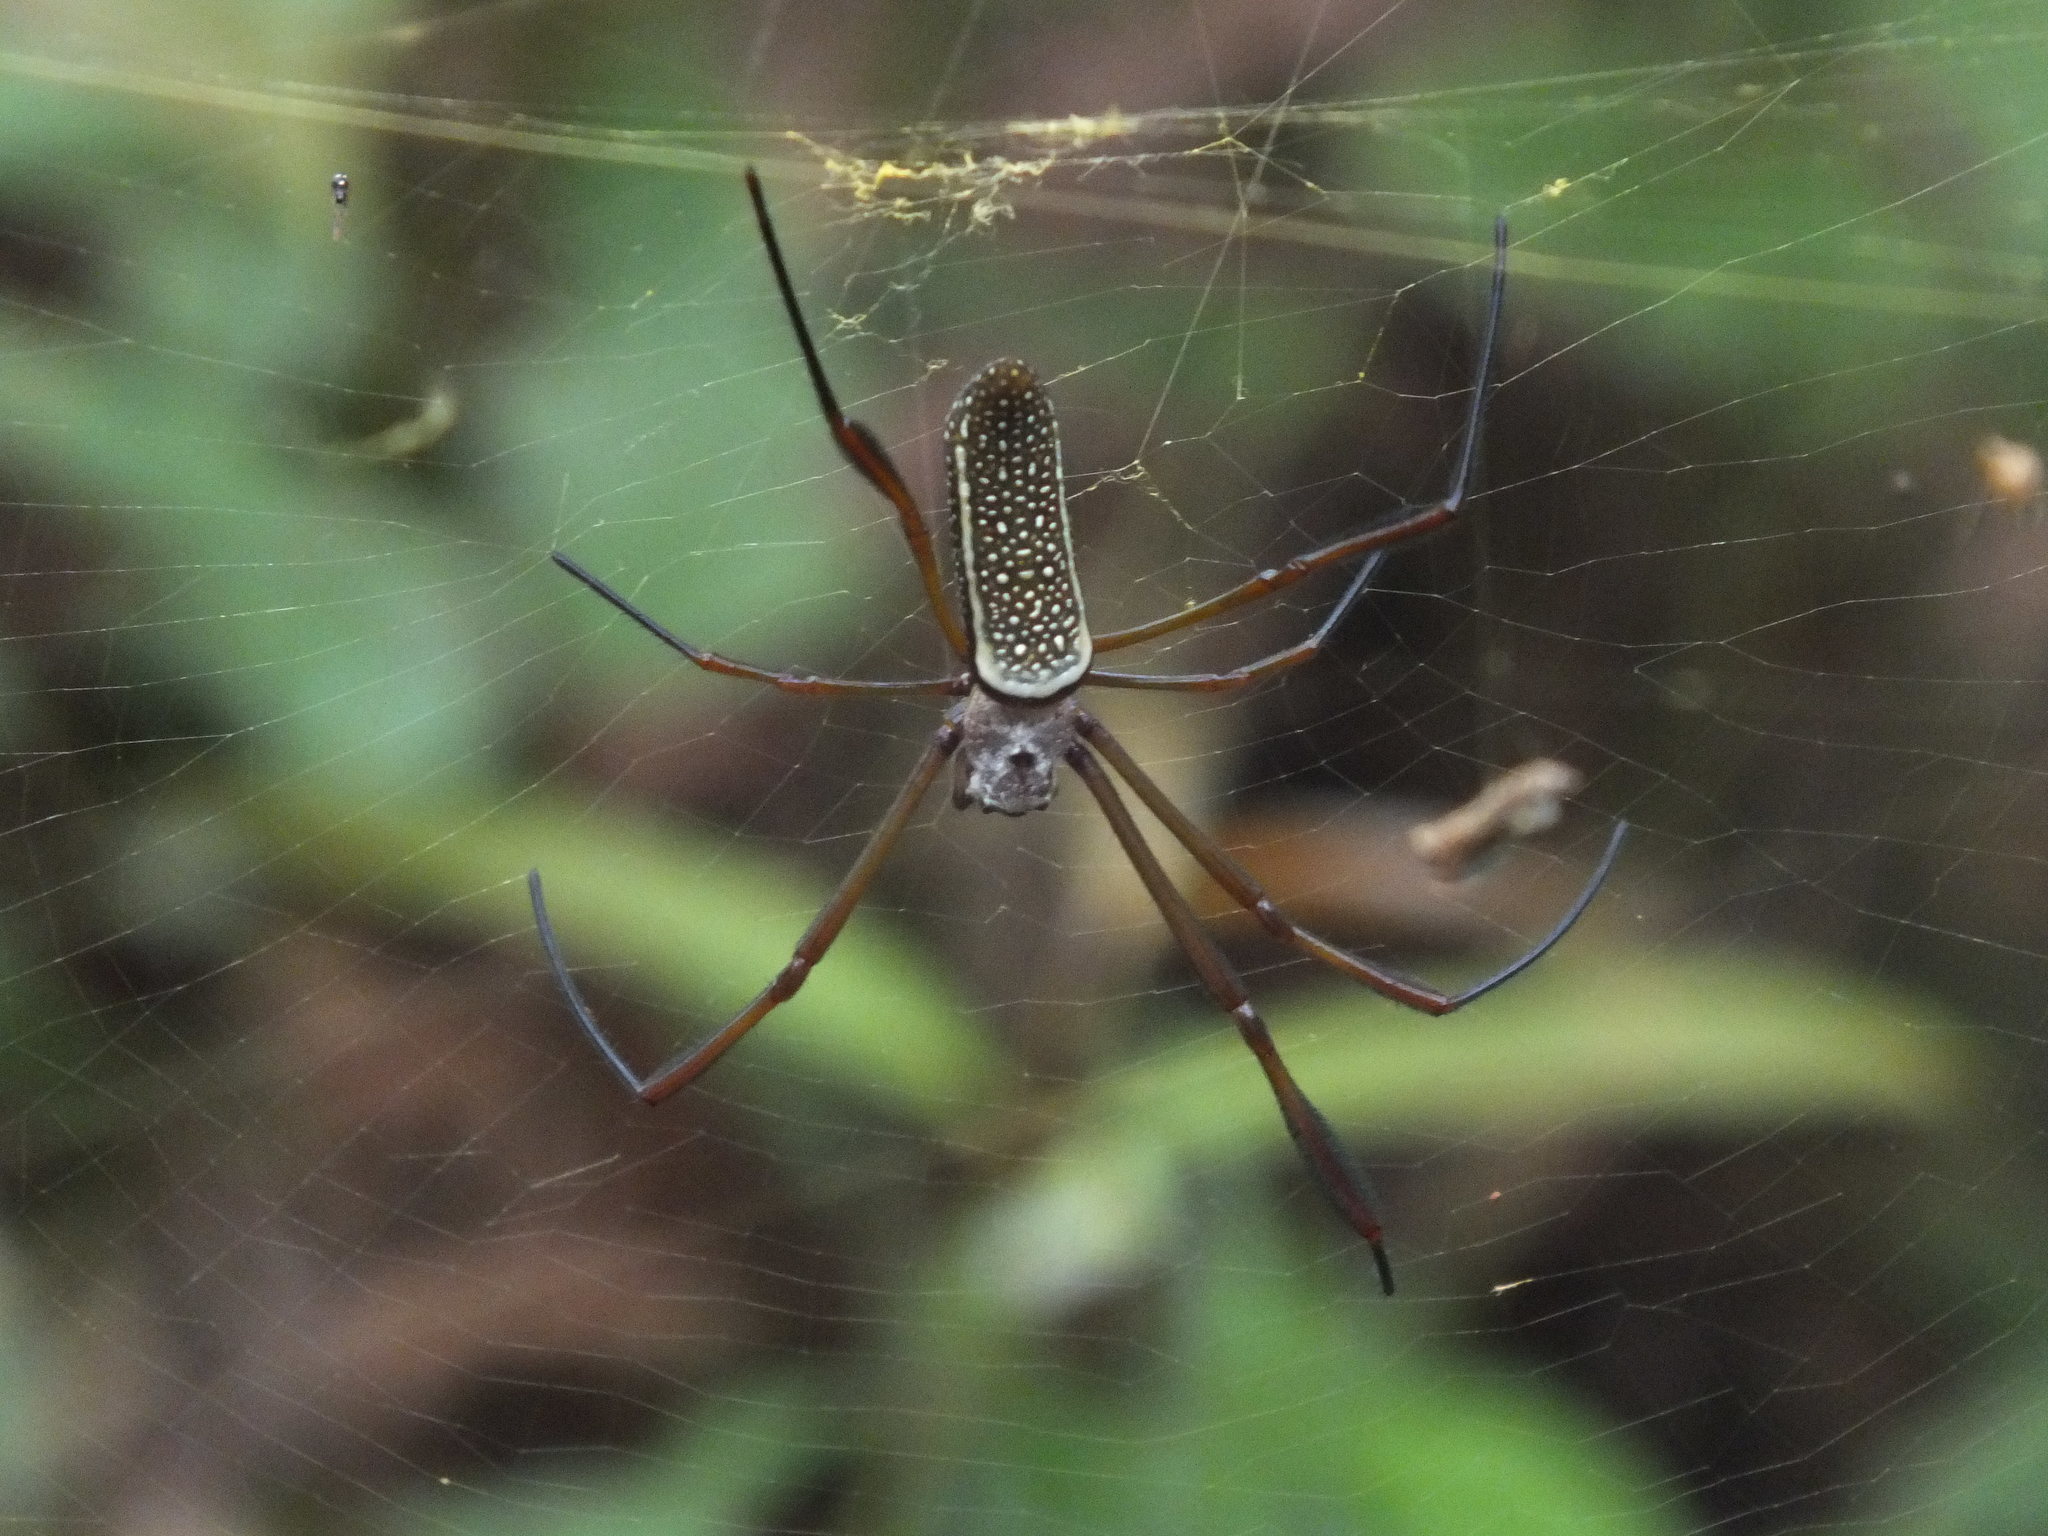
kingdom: Animalia
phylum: Arthropoda
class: Arachnida
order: Araneae
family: Araneidae
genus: Trichonephila
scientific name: Trichonephila clavipes
